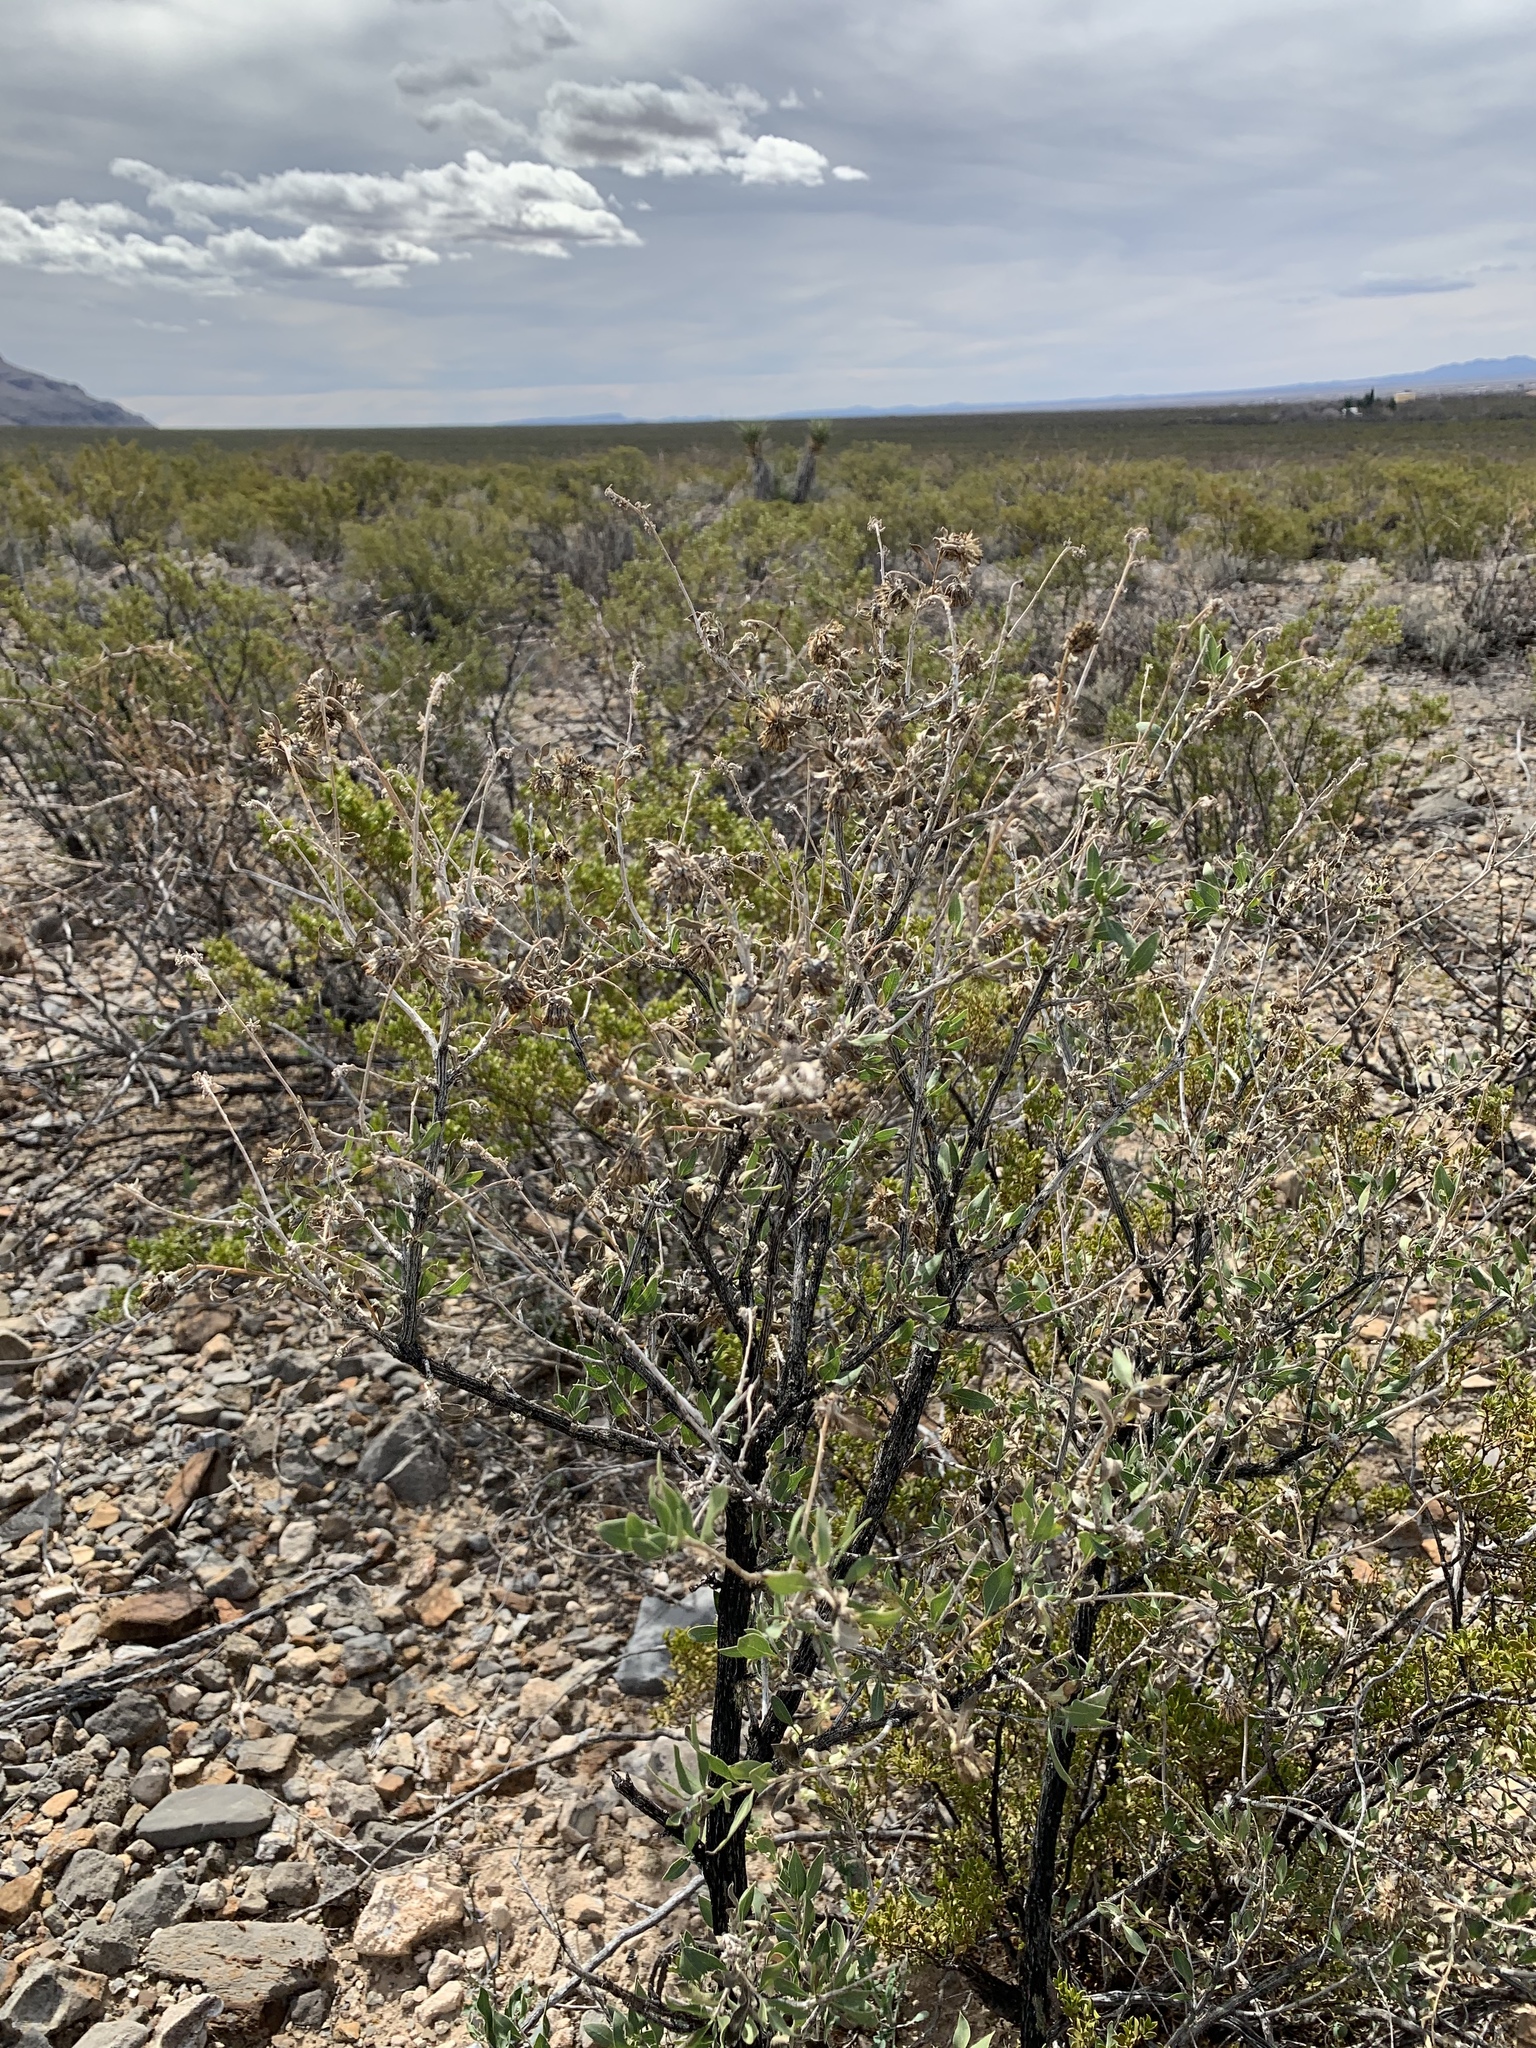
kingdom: Plantae
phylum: Tracheophyta
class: Magnoliopsida
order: Asterales
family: Asteraceae
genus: Flourensia
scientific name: Flourensia cernua
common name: Varnishbush
